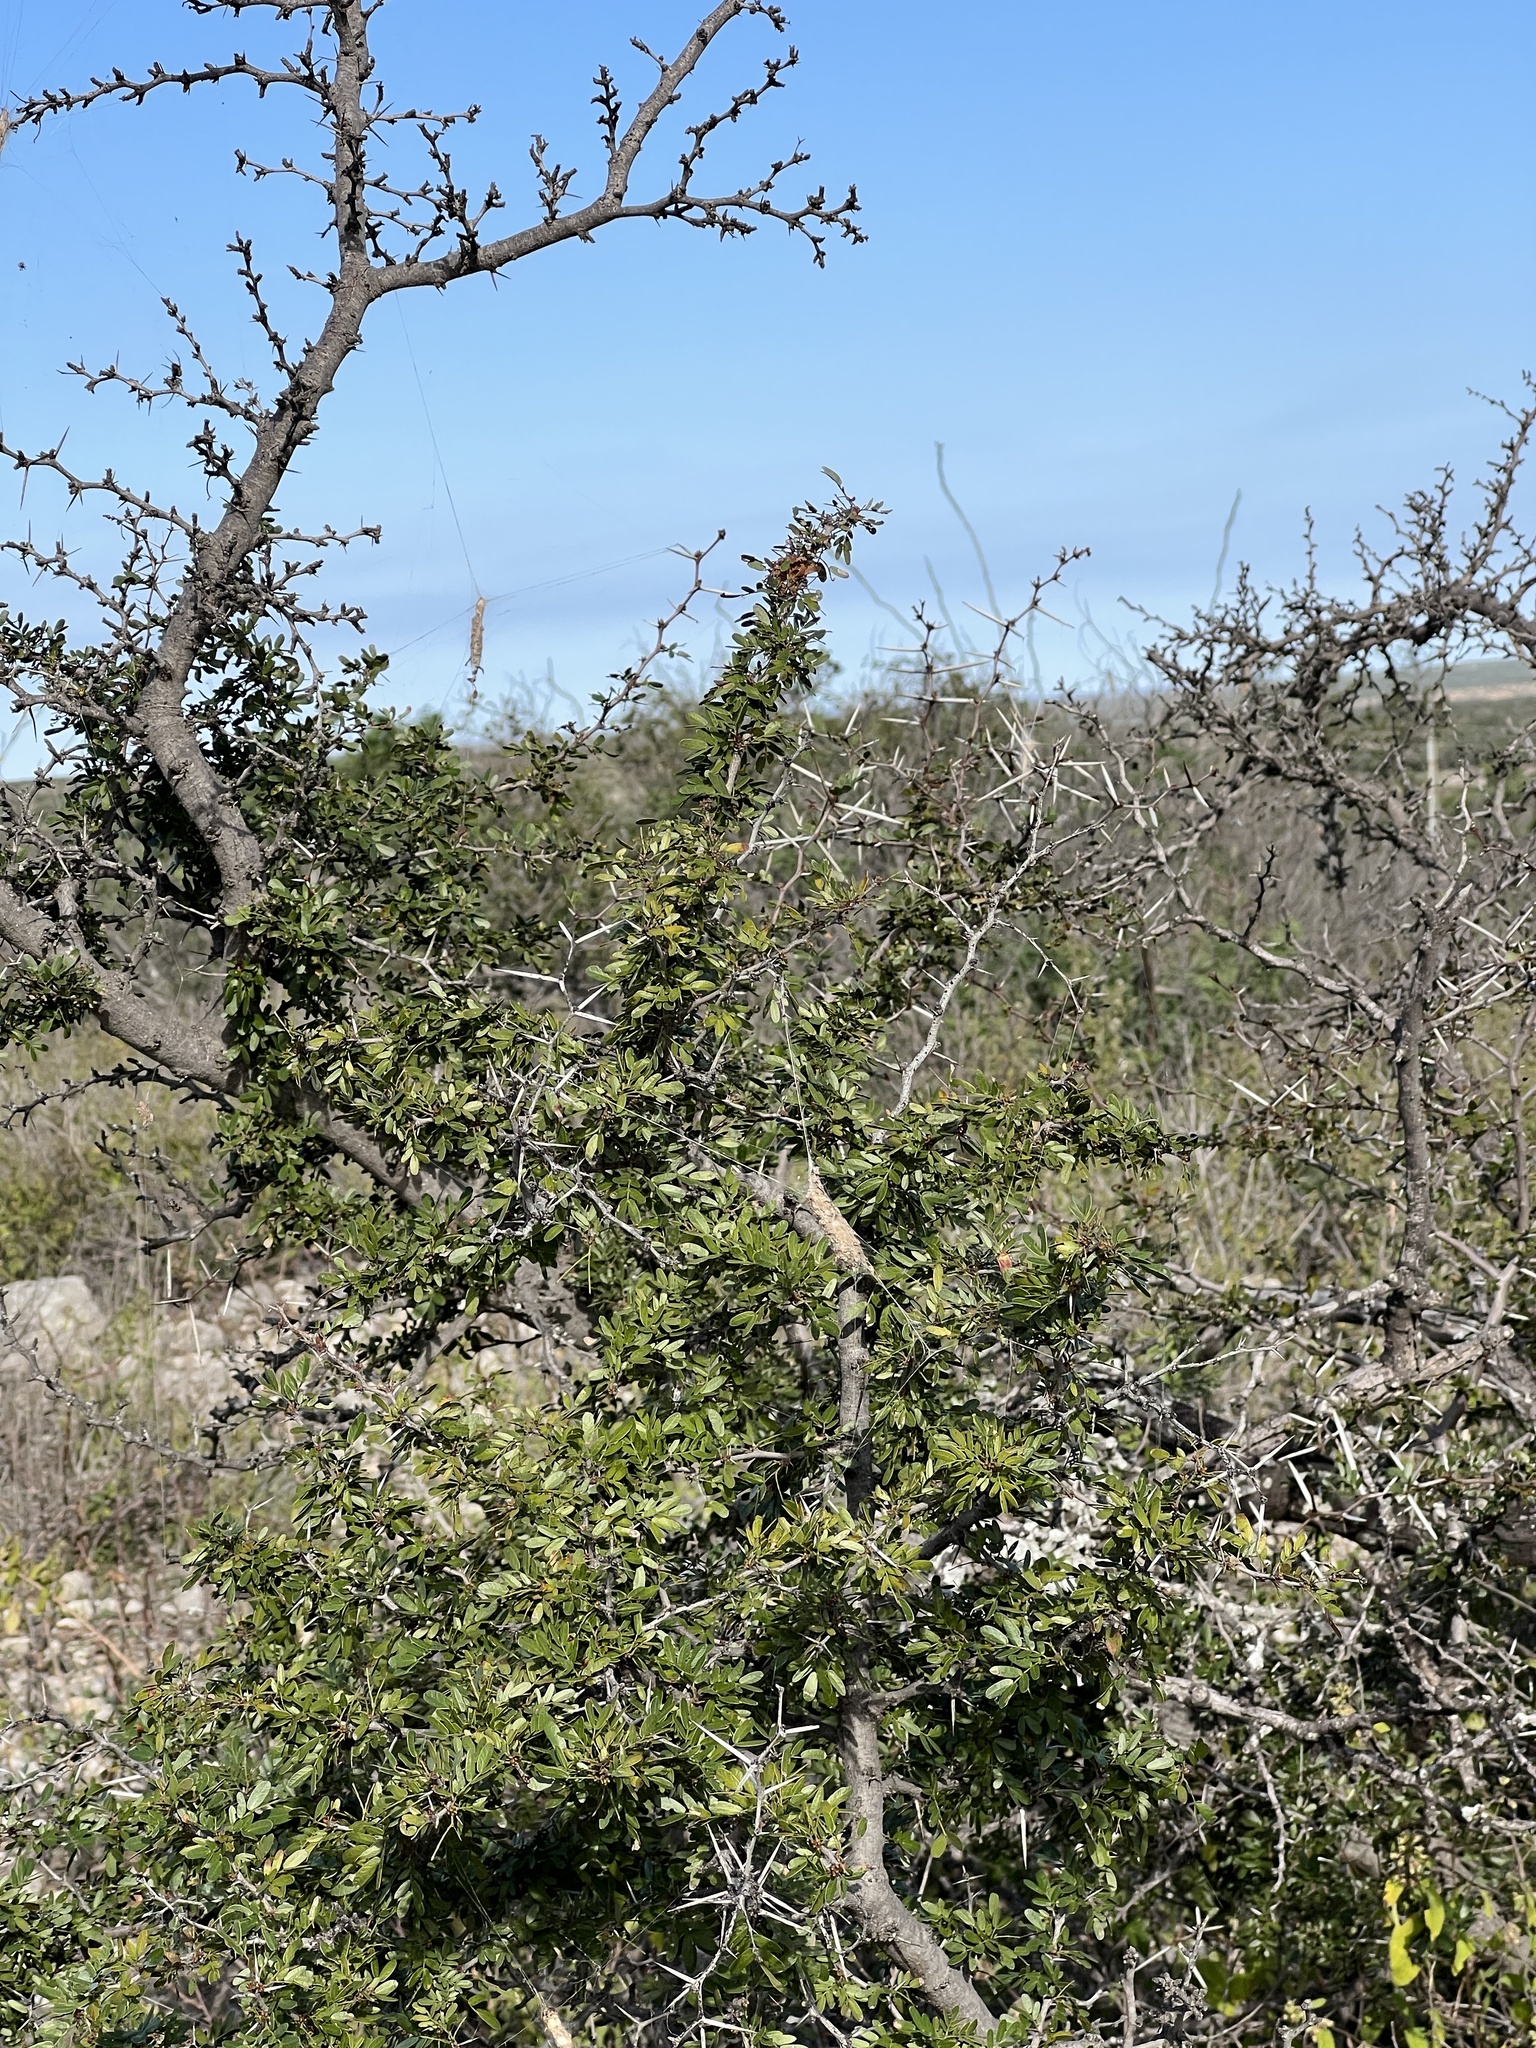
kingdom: Plantae
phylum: Tracheophyta
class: Magnoliopsida
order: Fabales
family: Fabaceae
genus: Vachellia
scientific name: Vachellia rigidula
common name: Blackbrush
